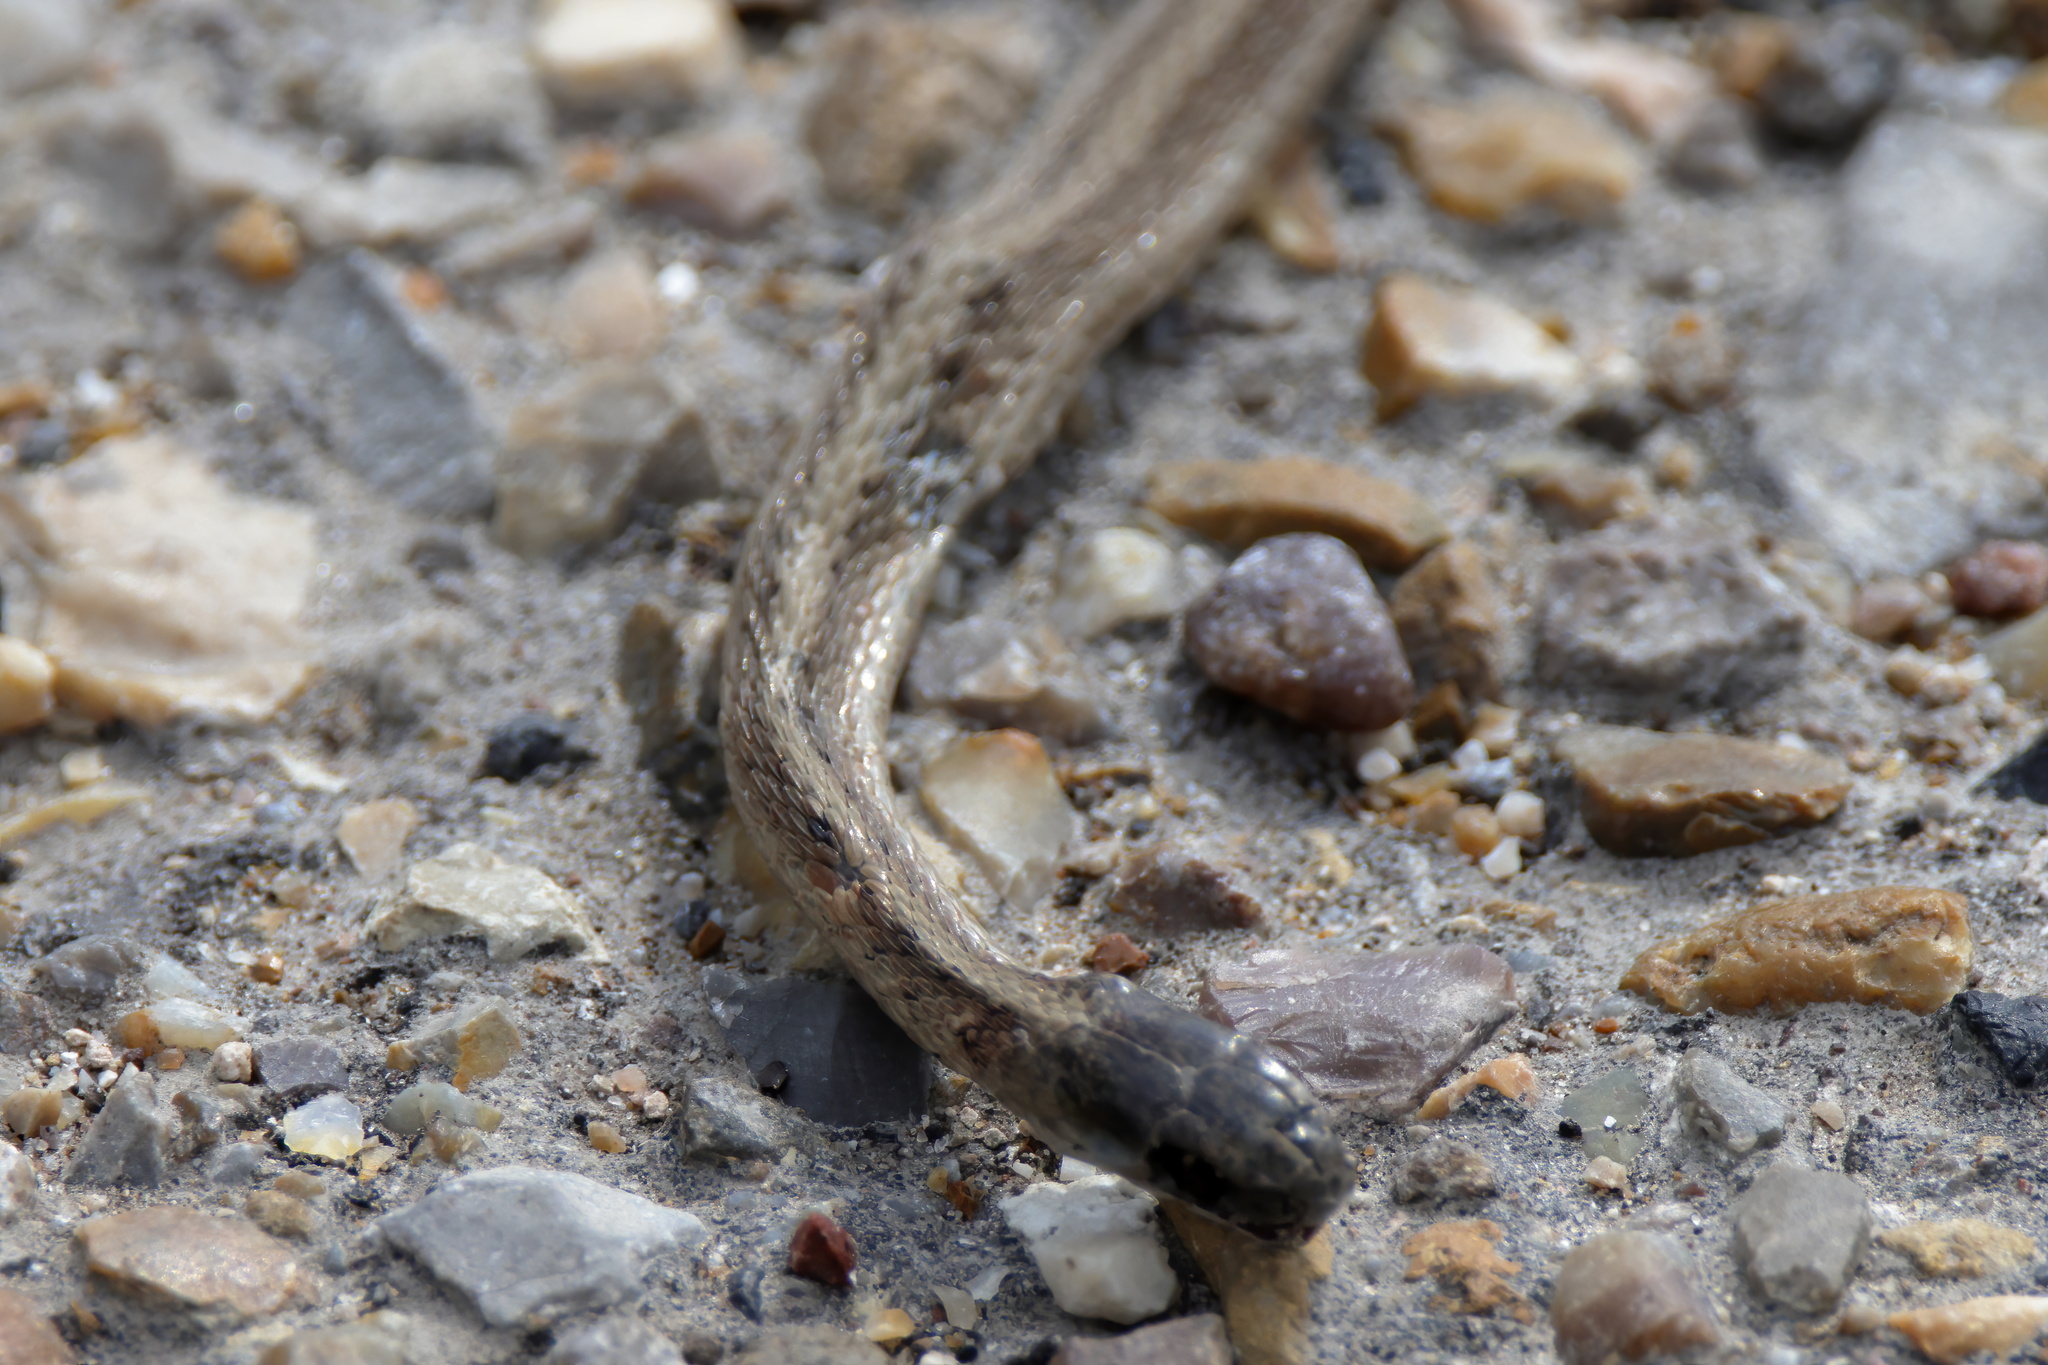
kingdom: Animalia
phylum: Chordata
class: Squamata
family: Colubridae
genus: Storeria
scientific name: Storeria dekayi
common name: (dekay’s) brown snake
